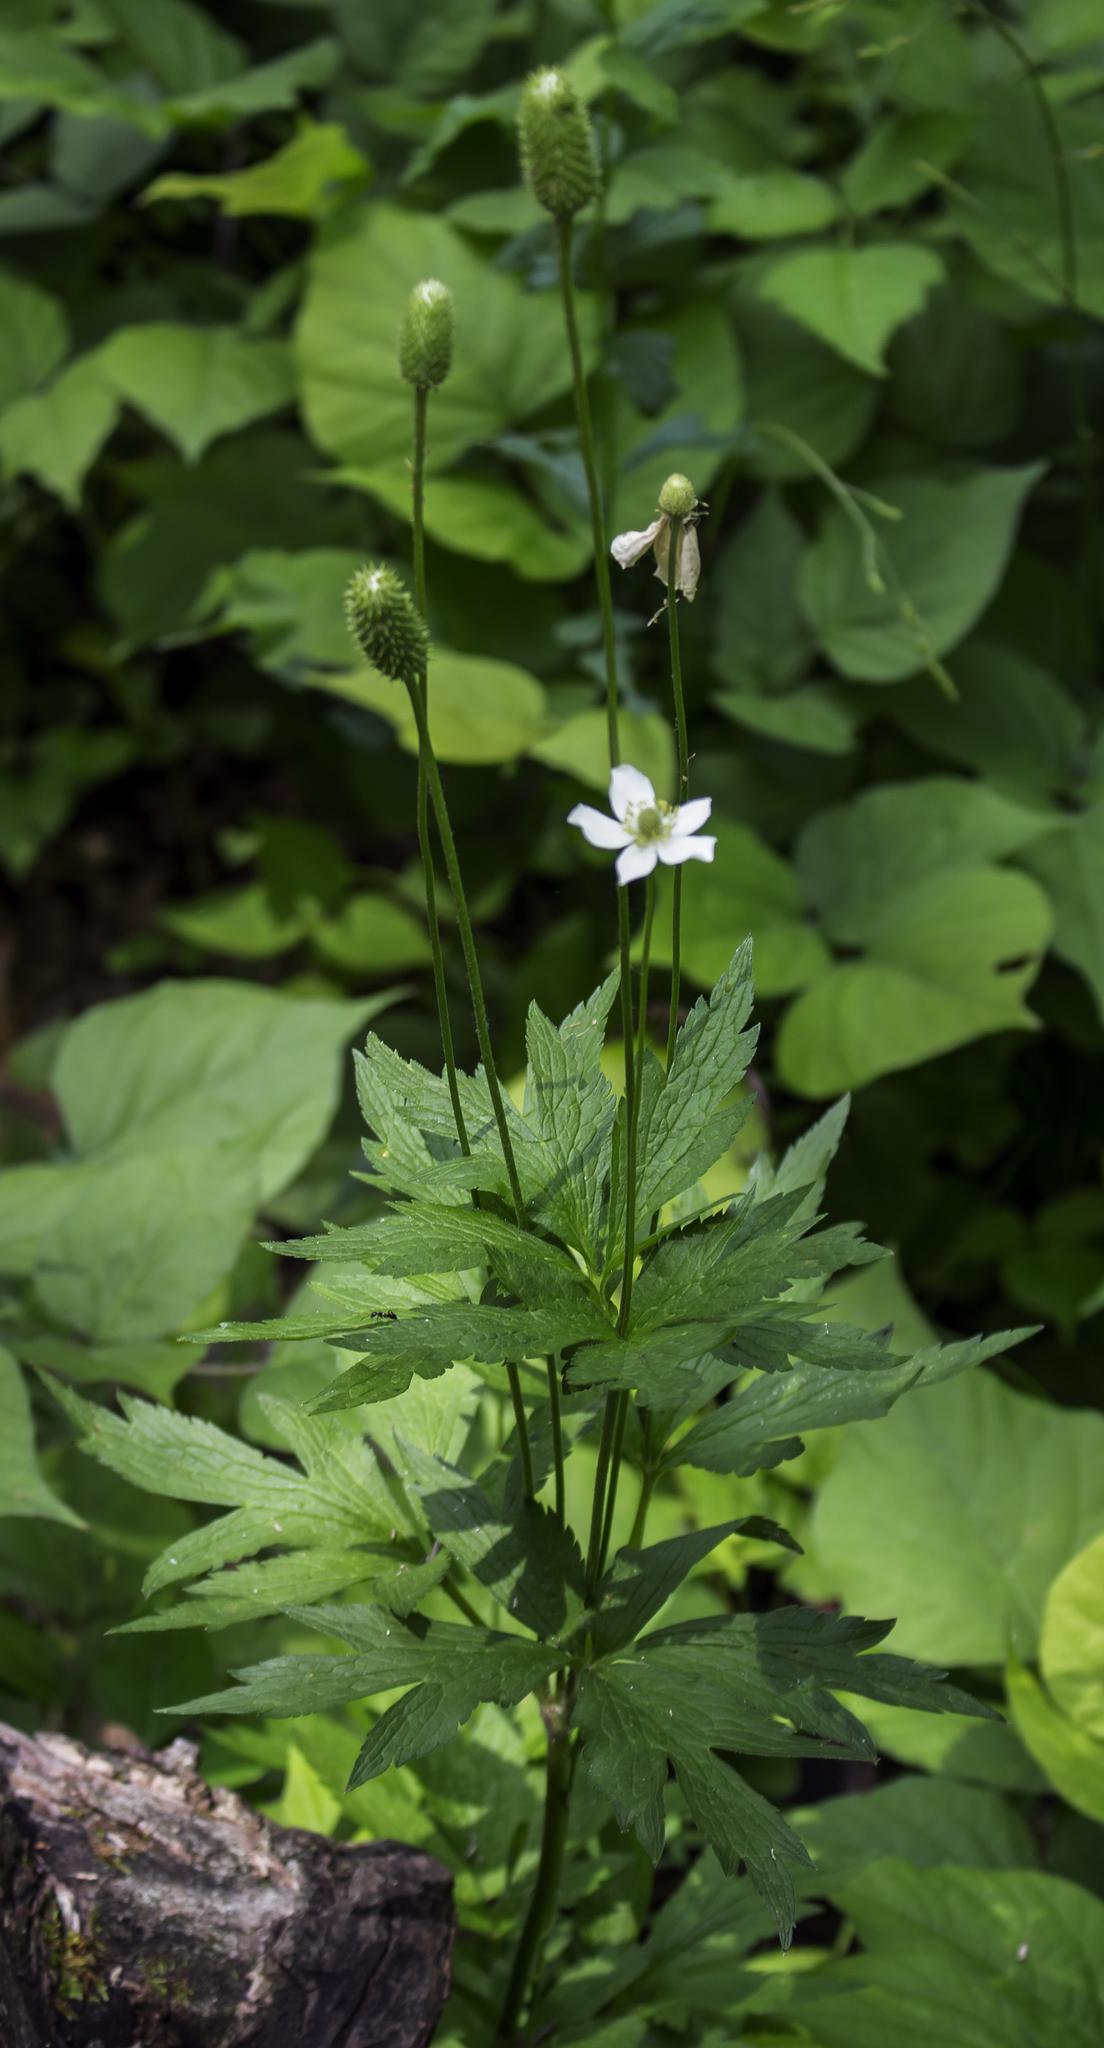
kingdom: Plantae
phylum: Tracheophyta
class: Magnoliopsida
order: Ranunculales
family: Ranunculaceae
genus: Anemone
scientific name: Anemone virginiana
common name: Tall anemone
